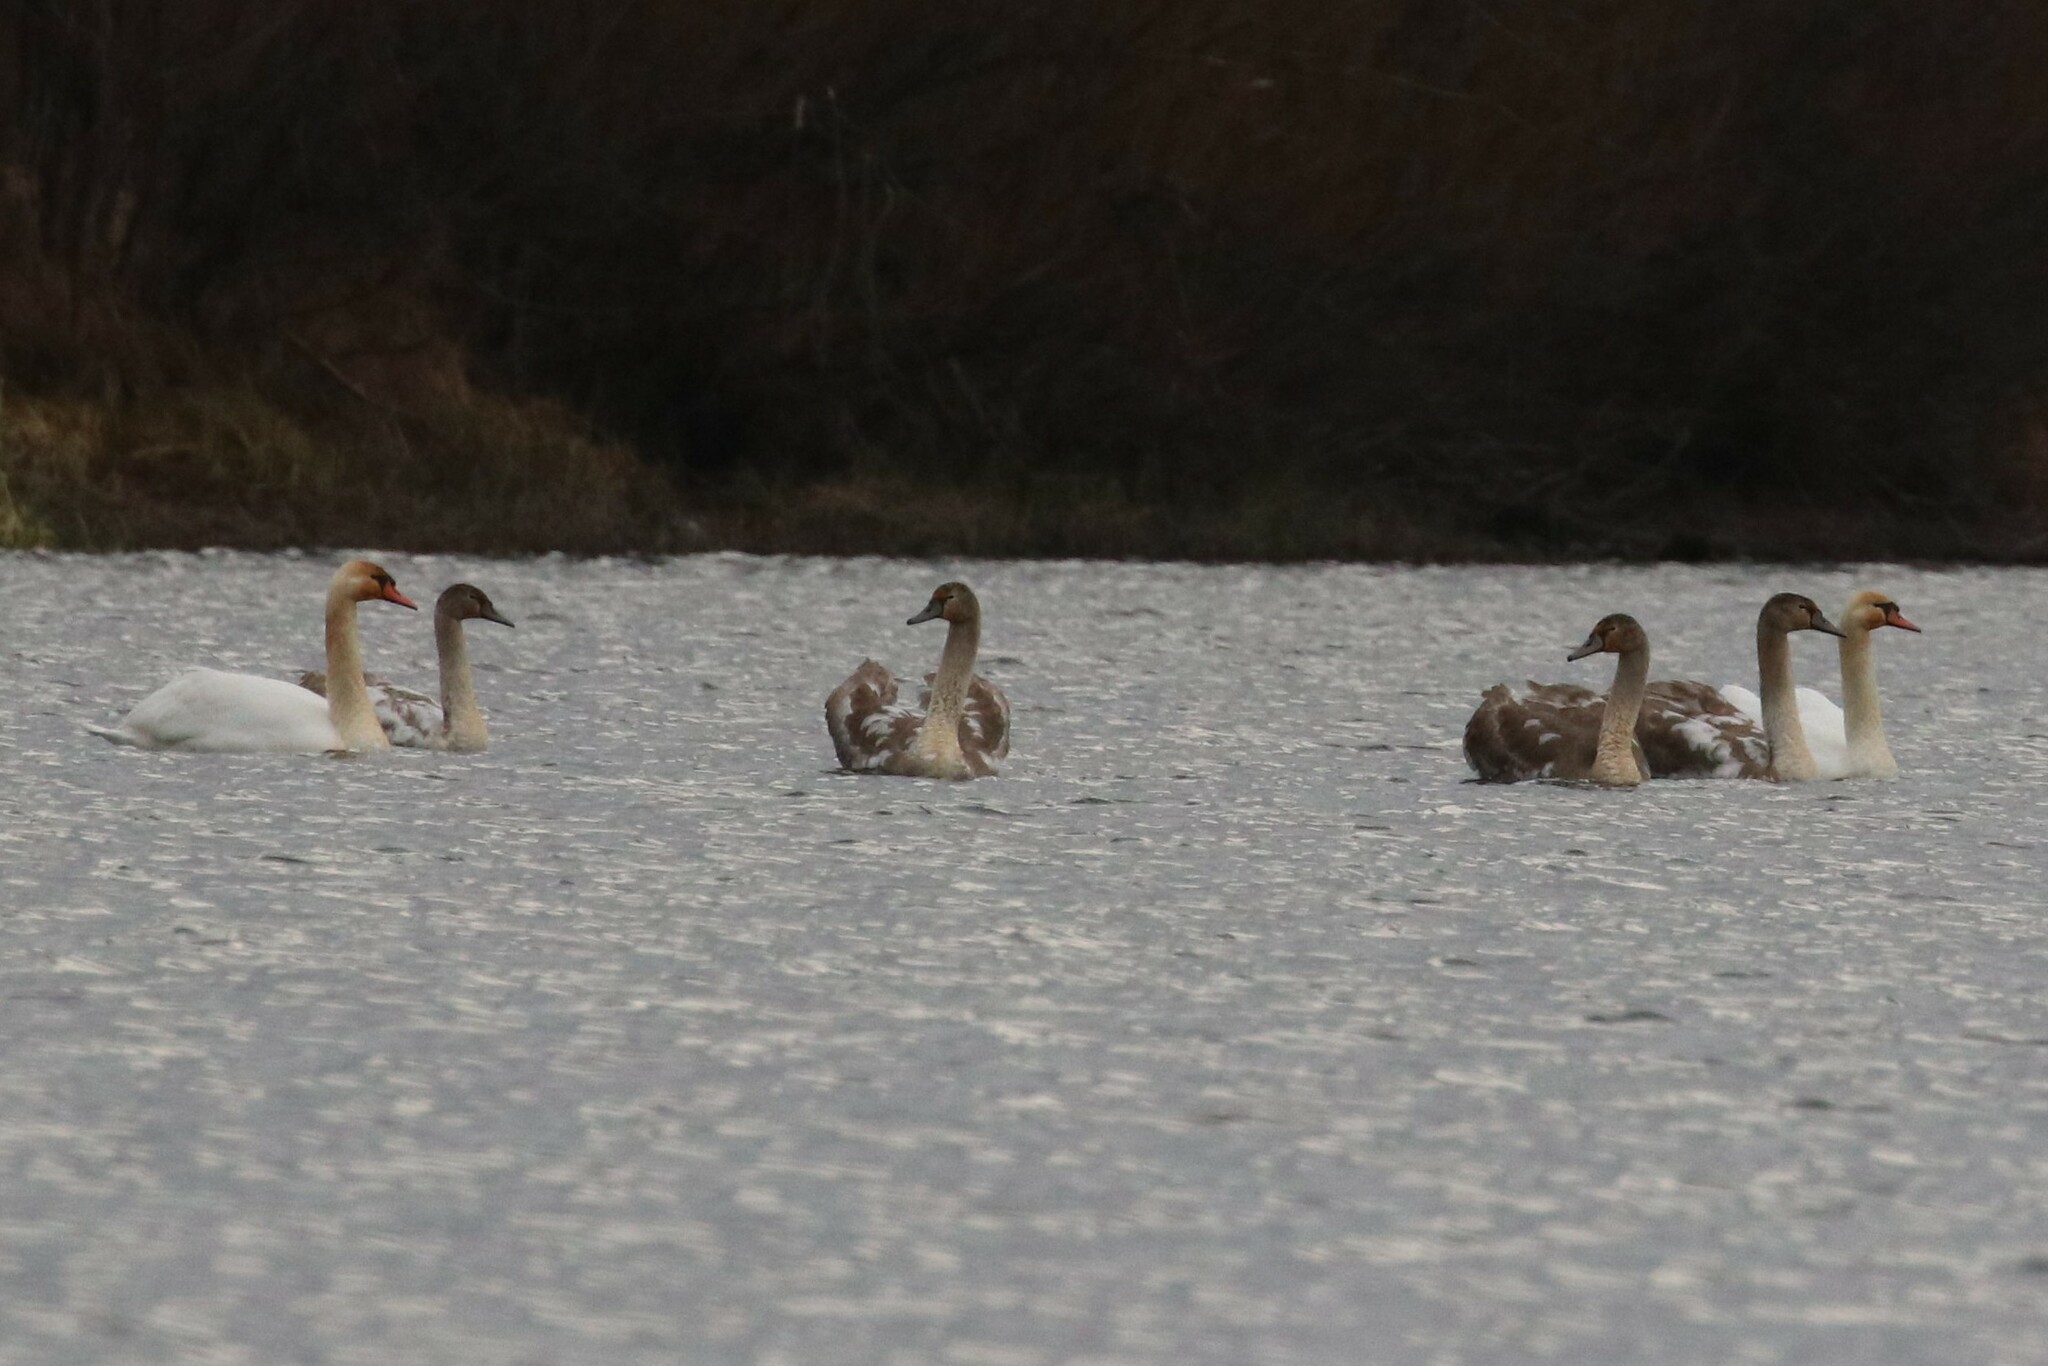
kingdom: Animalia
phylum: Chordata
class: Aves
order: Anseriformes
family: Anatidae
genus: Cygnus
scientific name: Cygnus olor
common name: Mute swan
